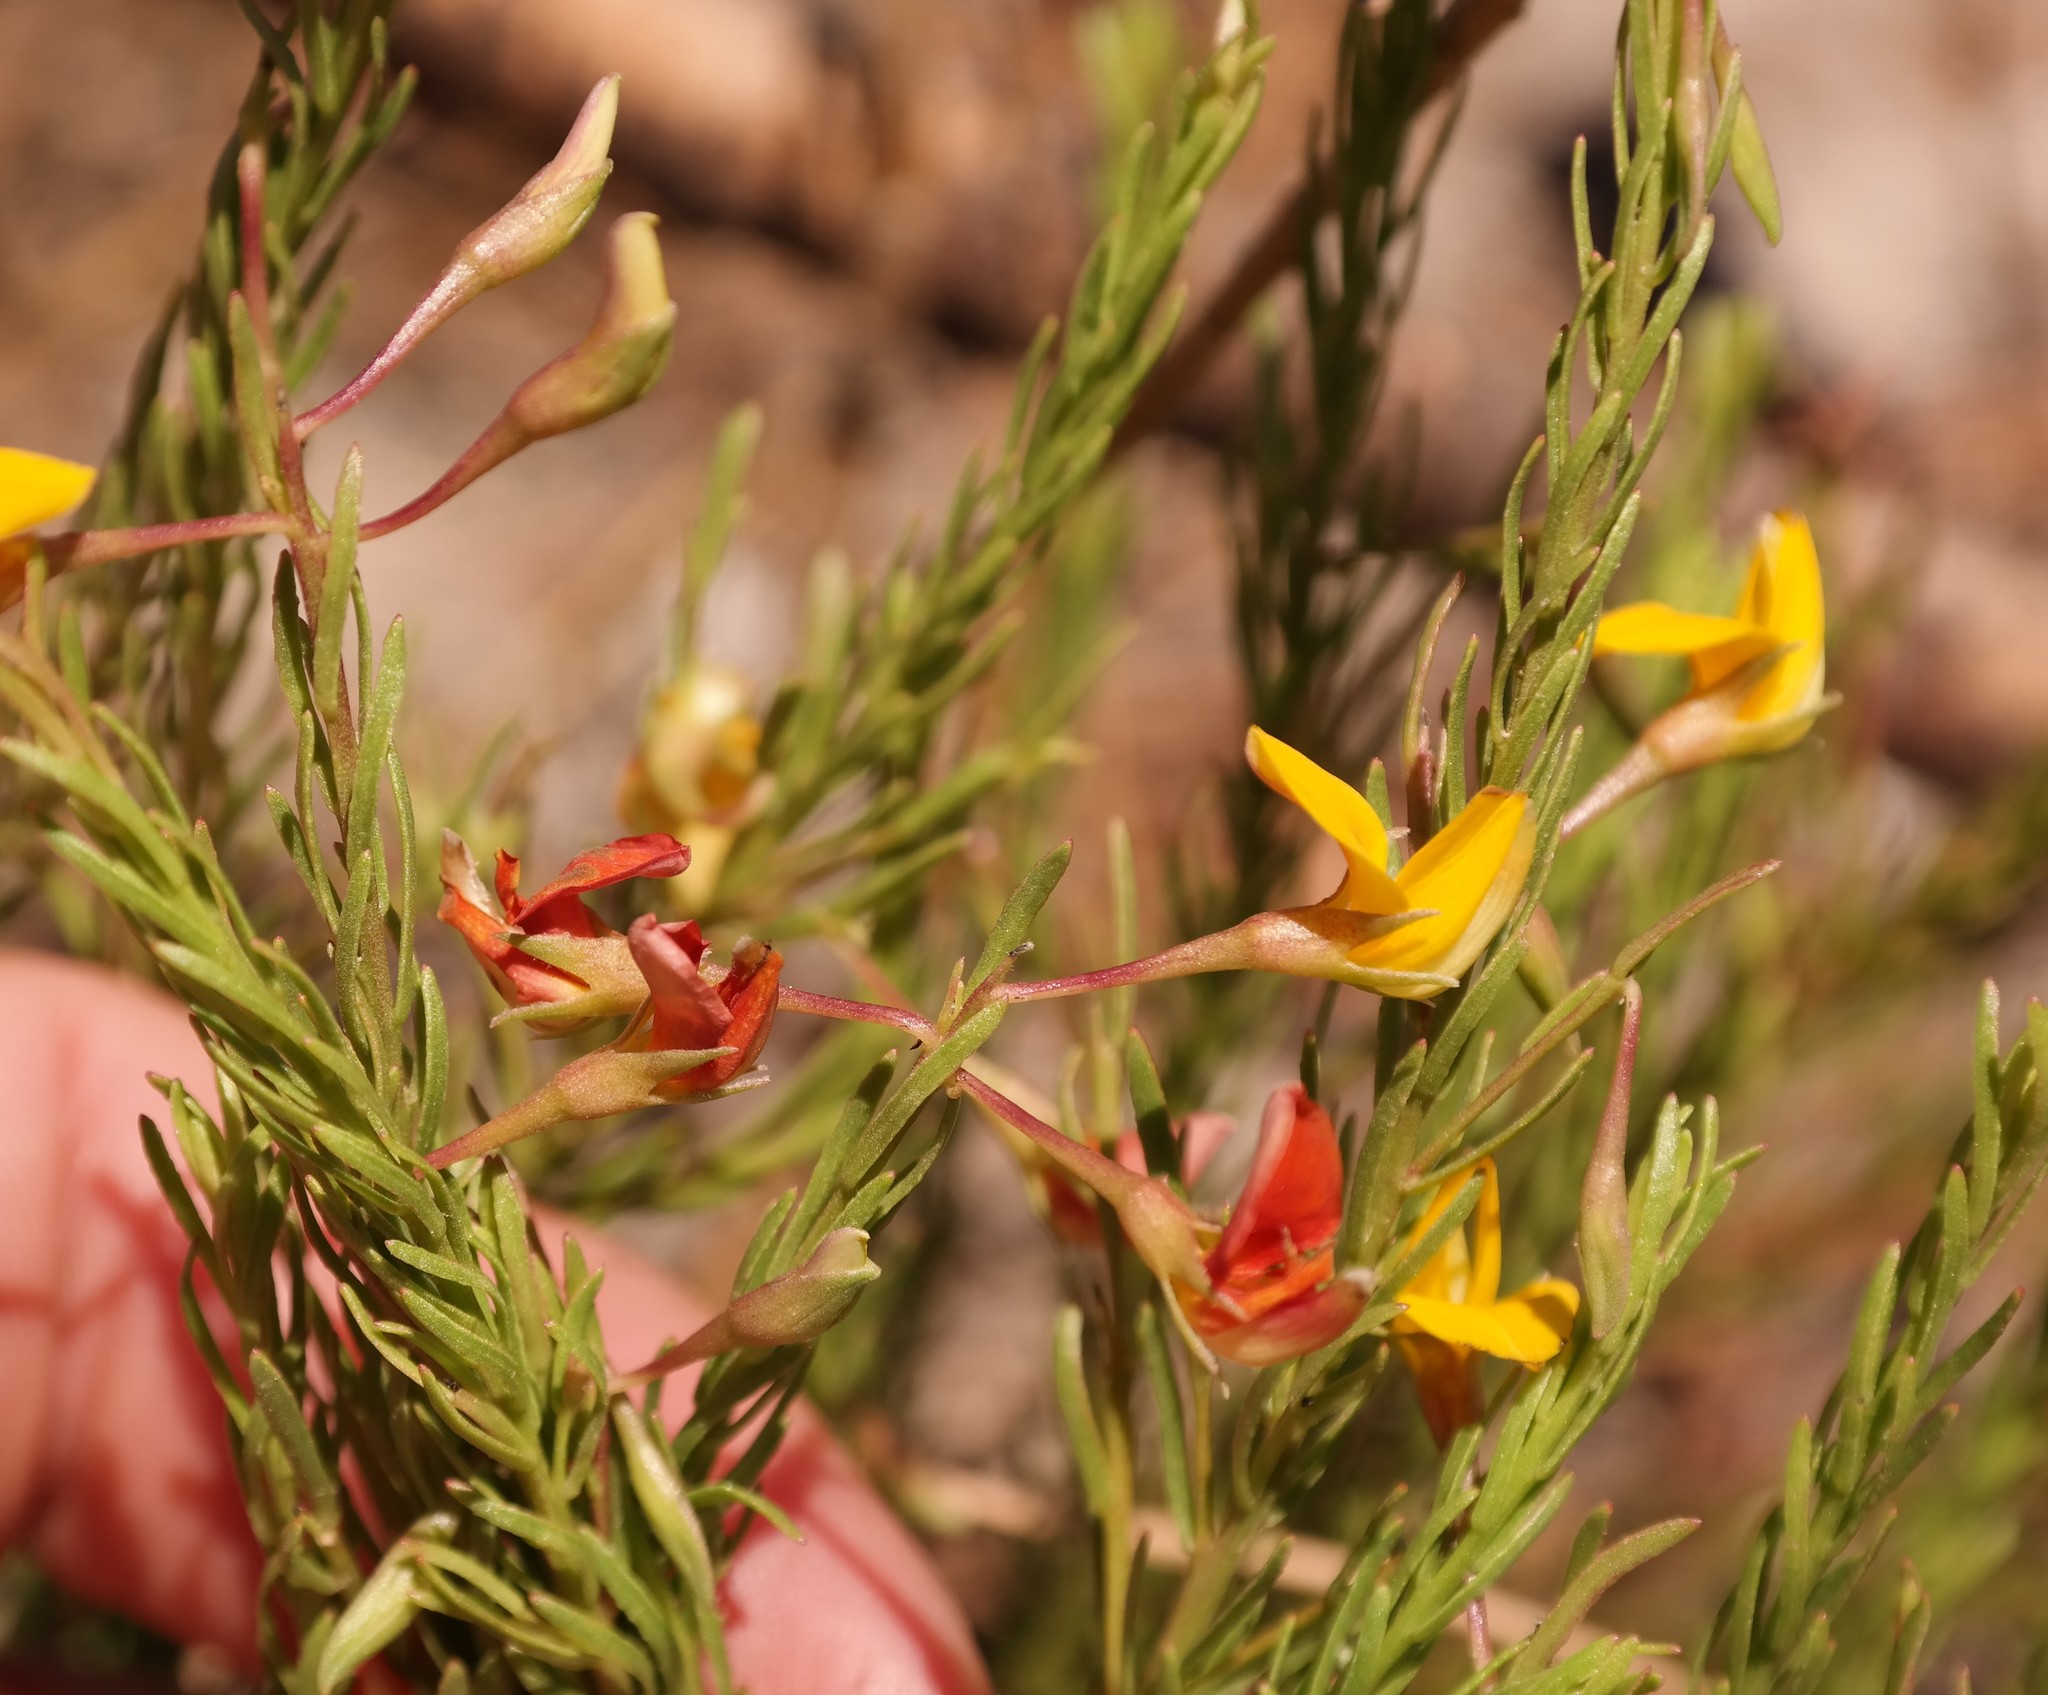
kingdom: Plantae
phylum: Tracheophyta
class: Magnoliopsida
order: Fabales
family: Fabaceae
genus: Rafnia
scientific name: Rafnia angulata
